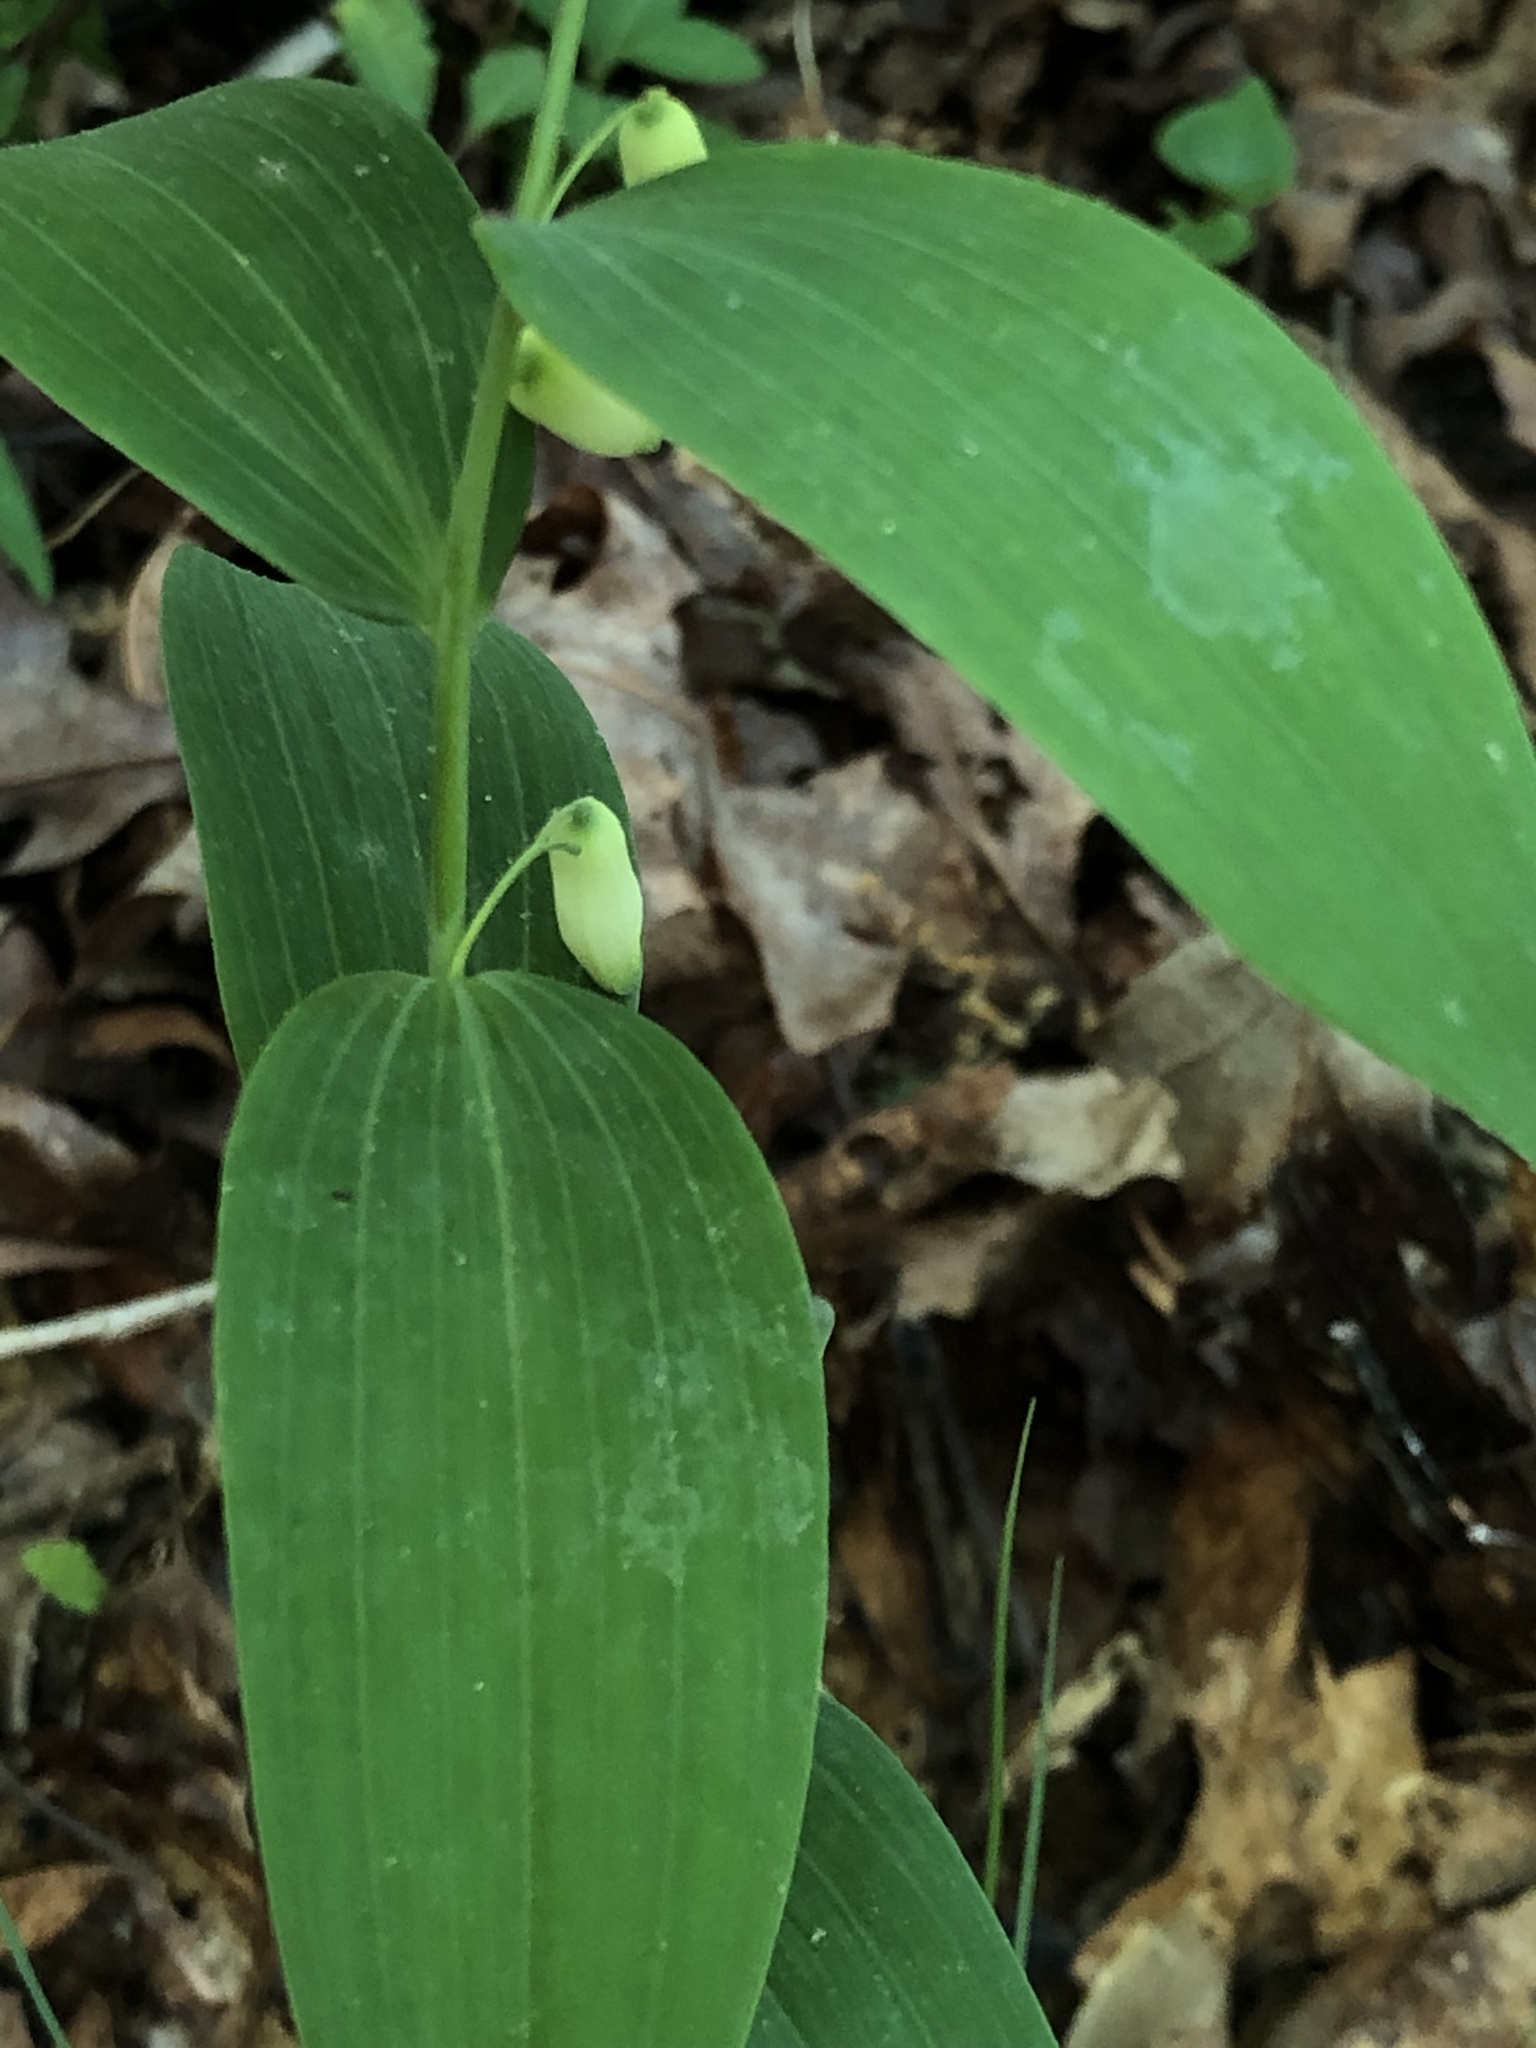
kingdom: Plantae
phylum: Tracheophyta
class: Liliopsida
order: Asparagales
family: Asparagaceae
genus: Polygonatum
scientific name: Polygonatum biflorum
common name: American solomon's-seal
